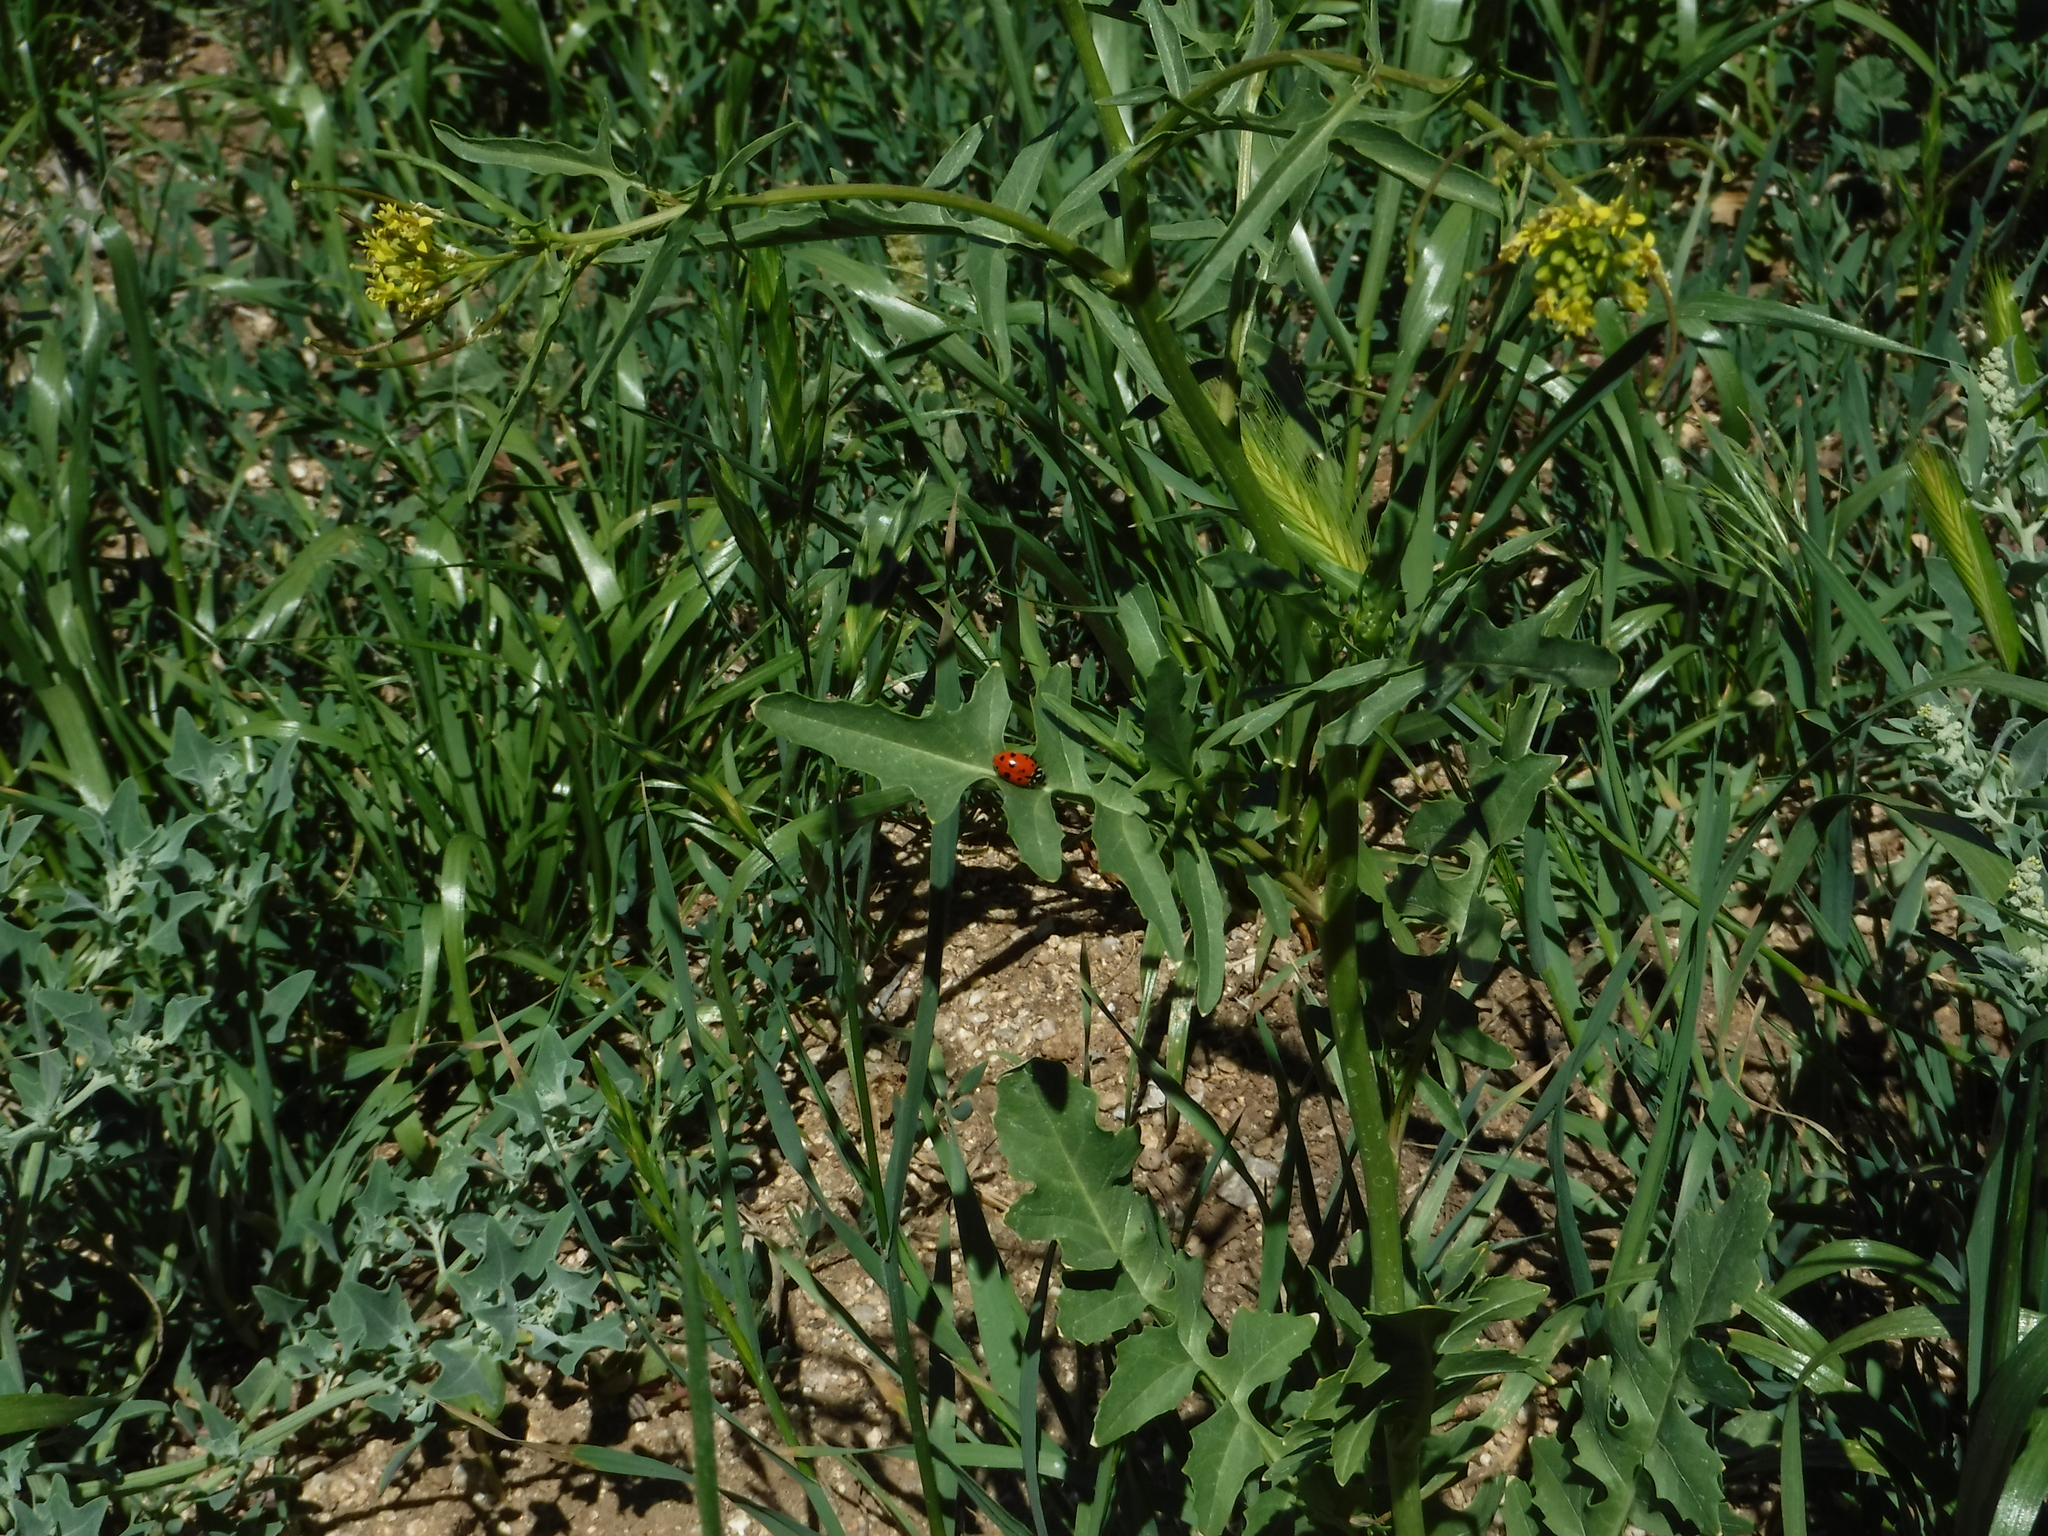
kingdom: Animalia
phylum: Arthropoda
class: Insecta
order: Coleoptera
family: Coccinellidae
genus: Hippodamia
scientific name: Hippodamia convergens
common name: Convergent lady beetle
